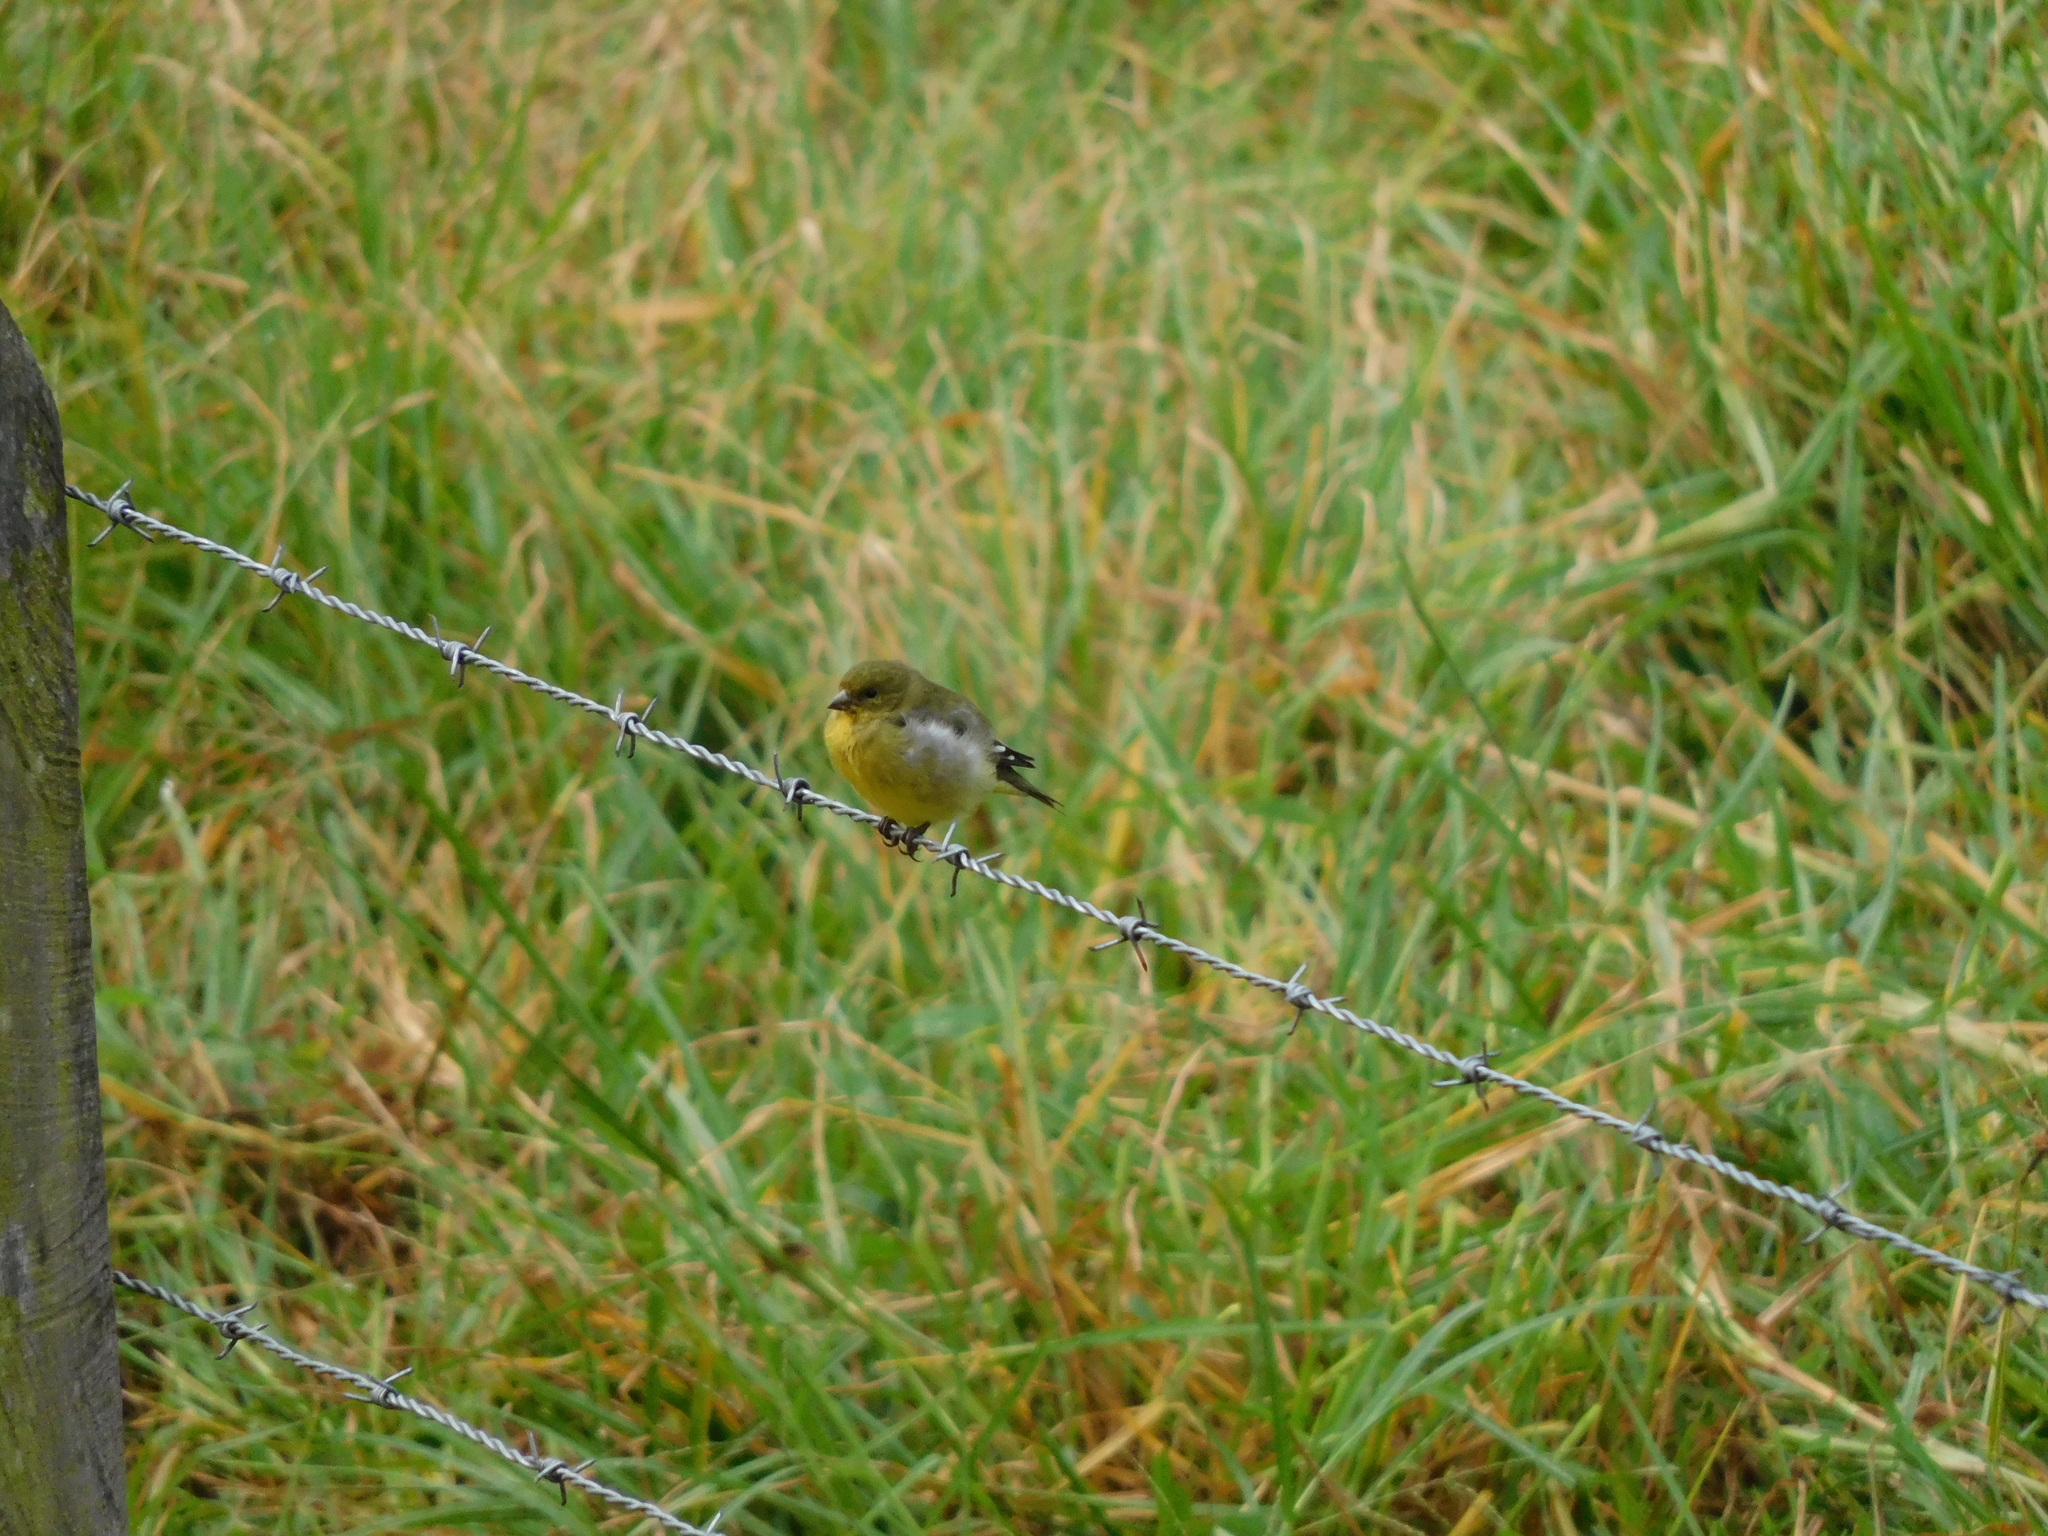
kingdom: Animalia
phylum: Chordata
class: Aves
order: Passeriformes
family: Fringillidae
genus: Spinus
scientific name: Spinus psaltria
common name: Lesser goldfinch
